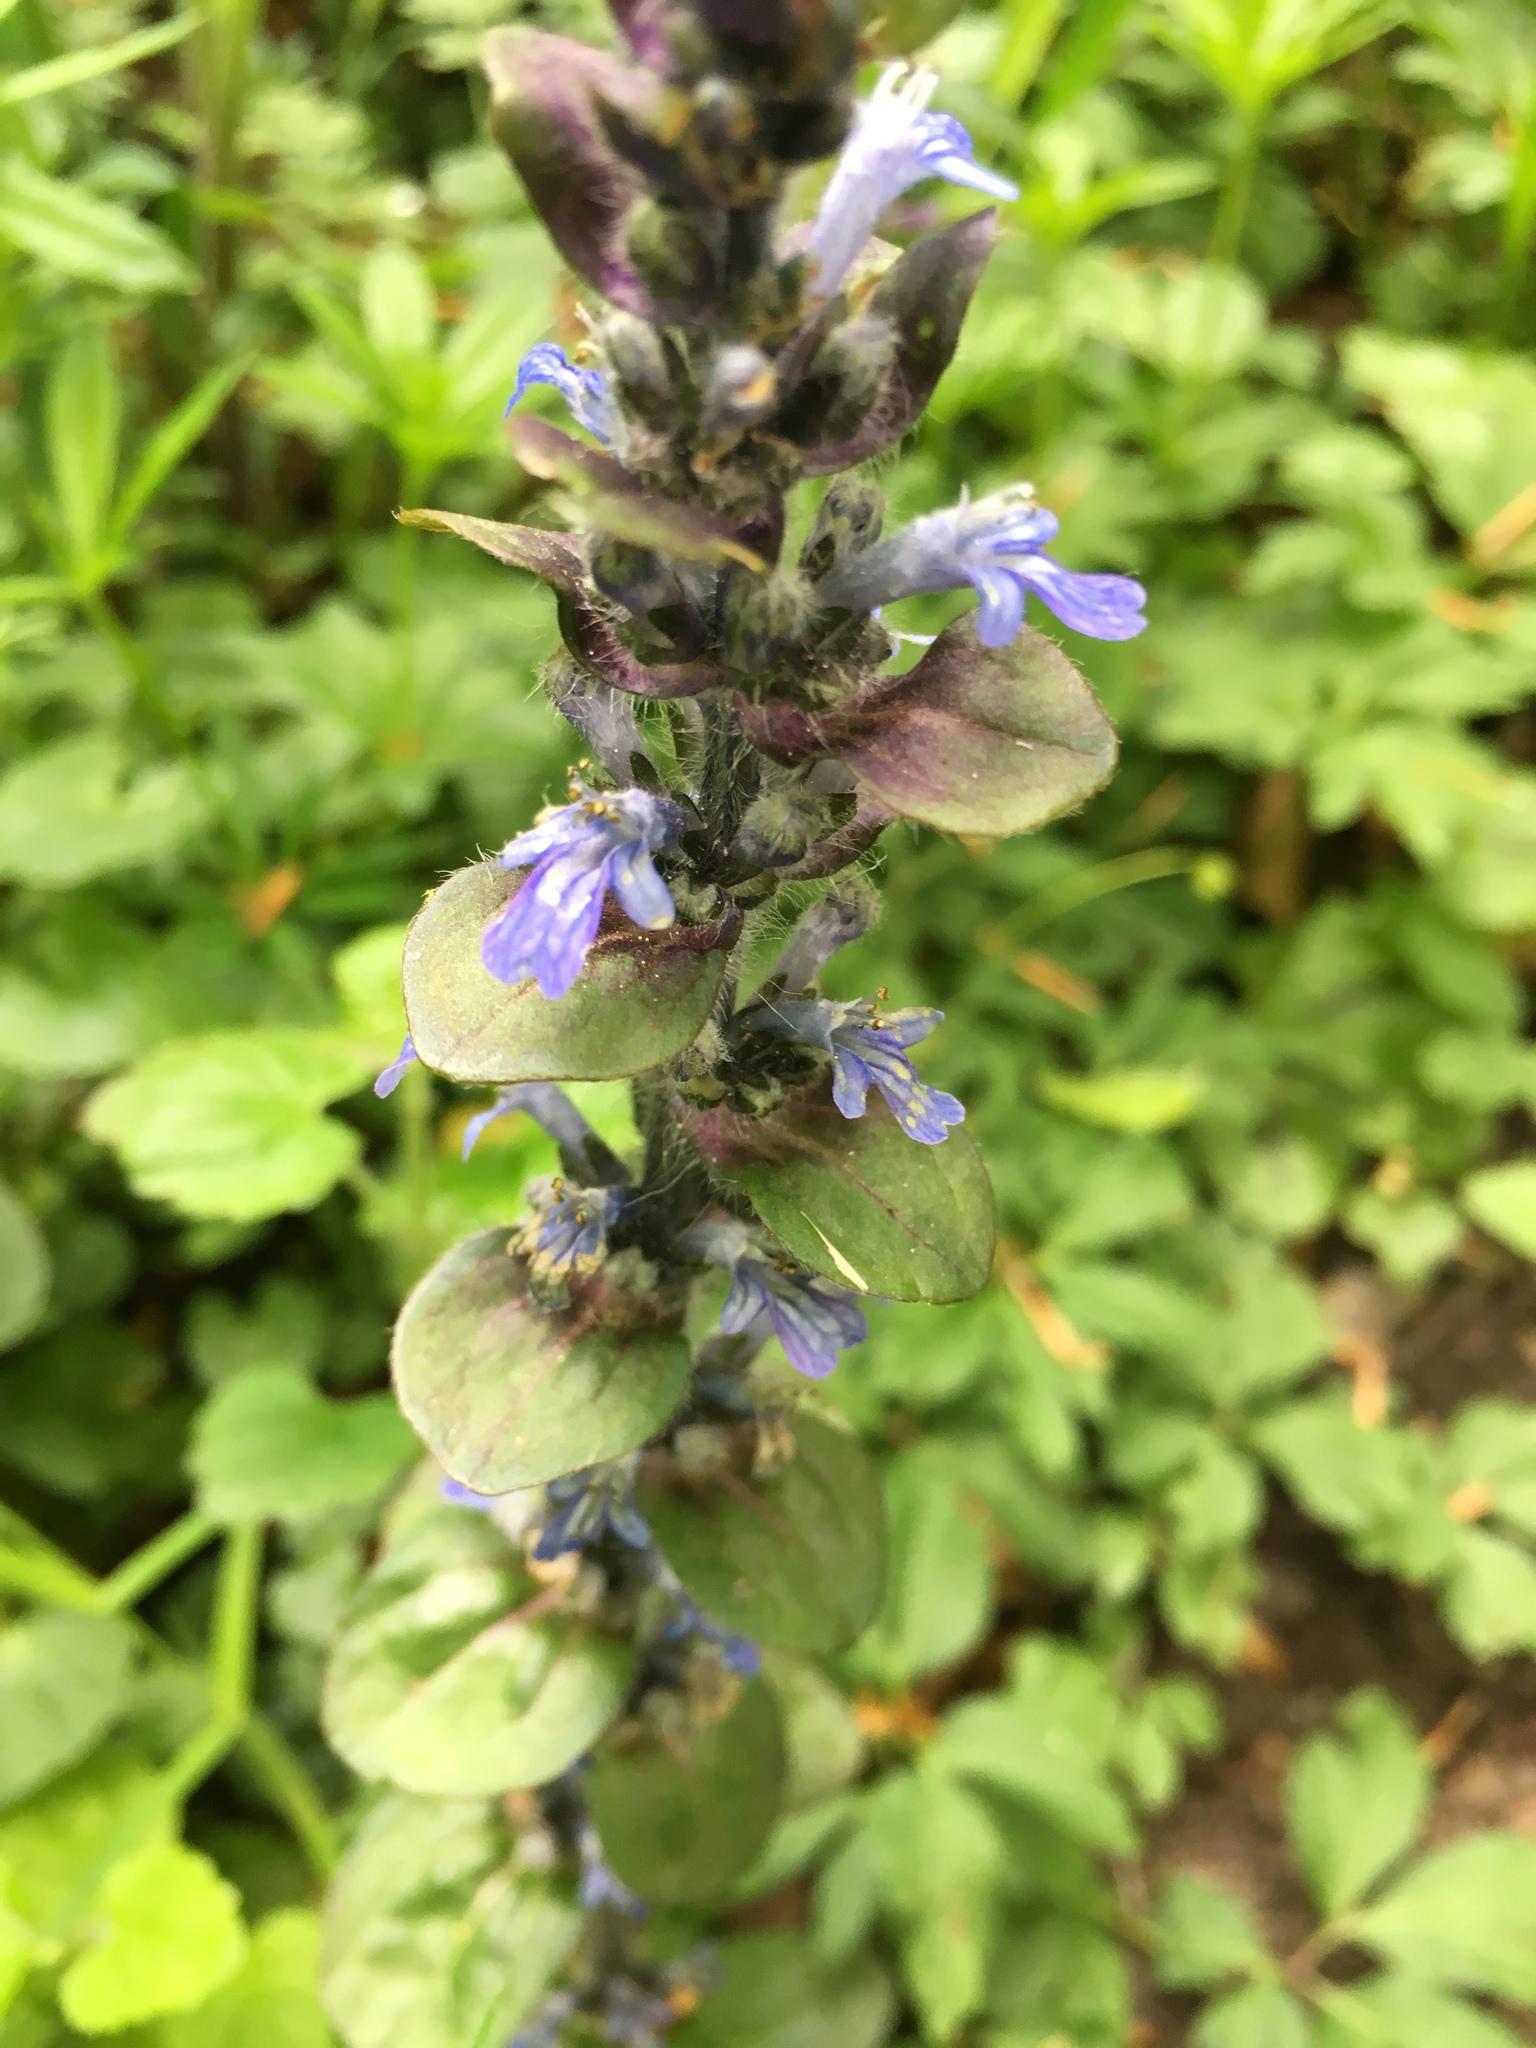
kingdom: Plantae
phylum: Tracheophyta
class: Magnoliopsida
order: Lamiales
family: Lamiaceae
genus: Ajuga
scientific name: Ajuga reptans
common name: Bugle
